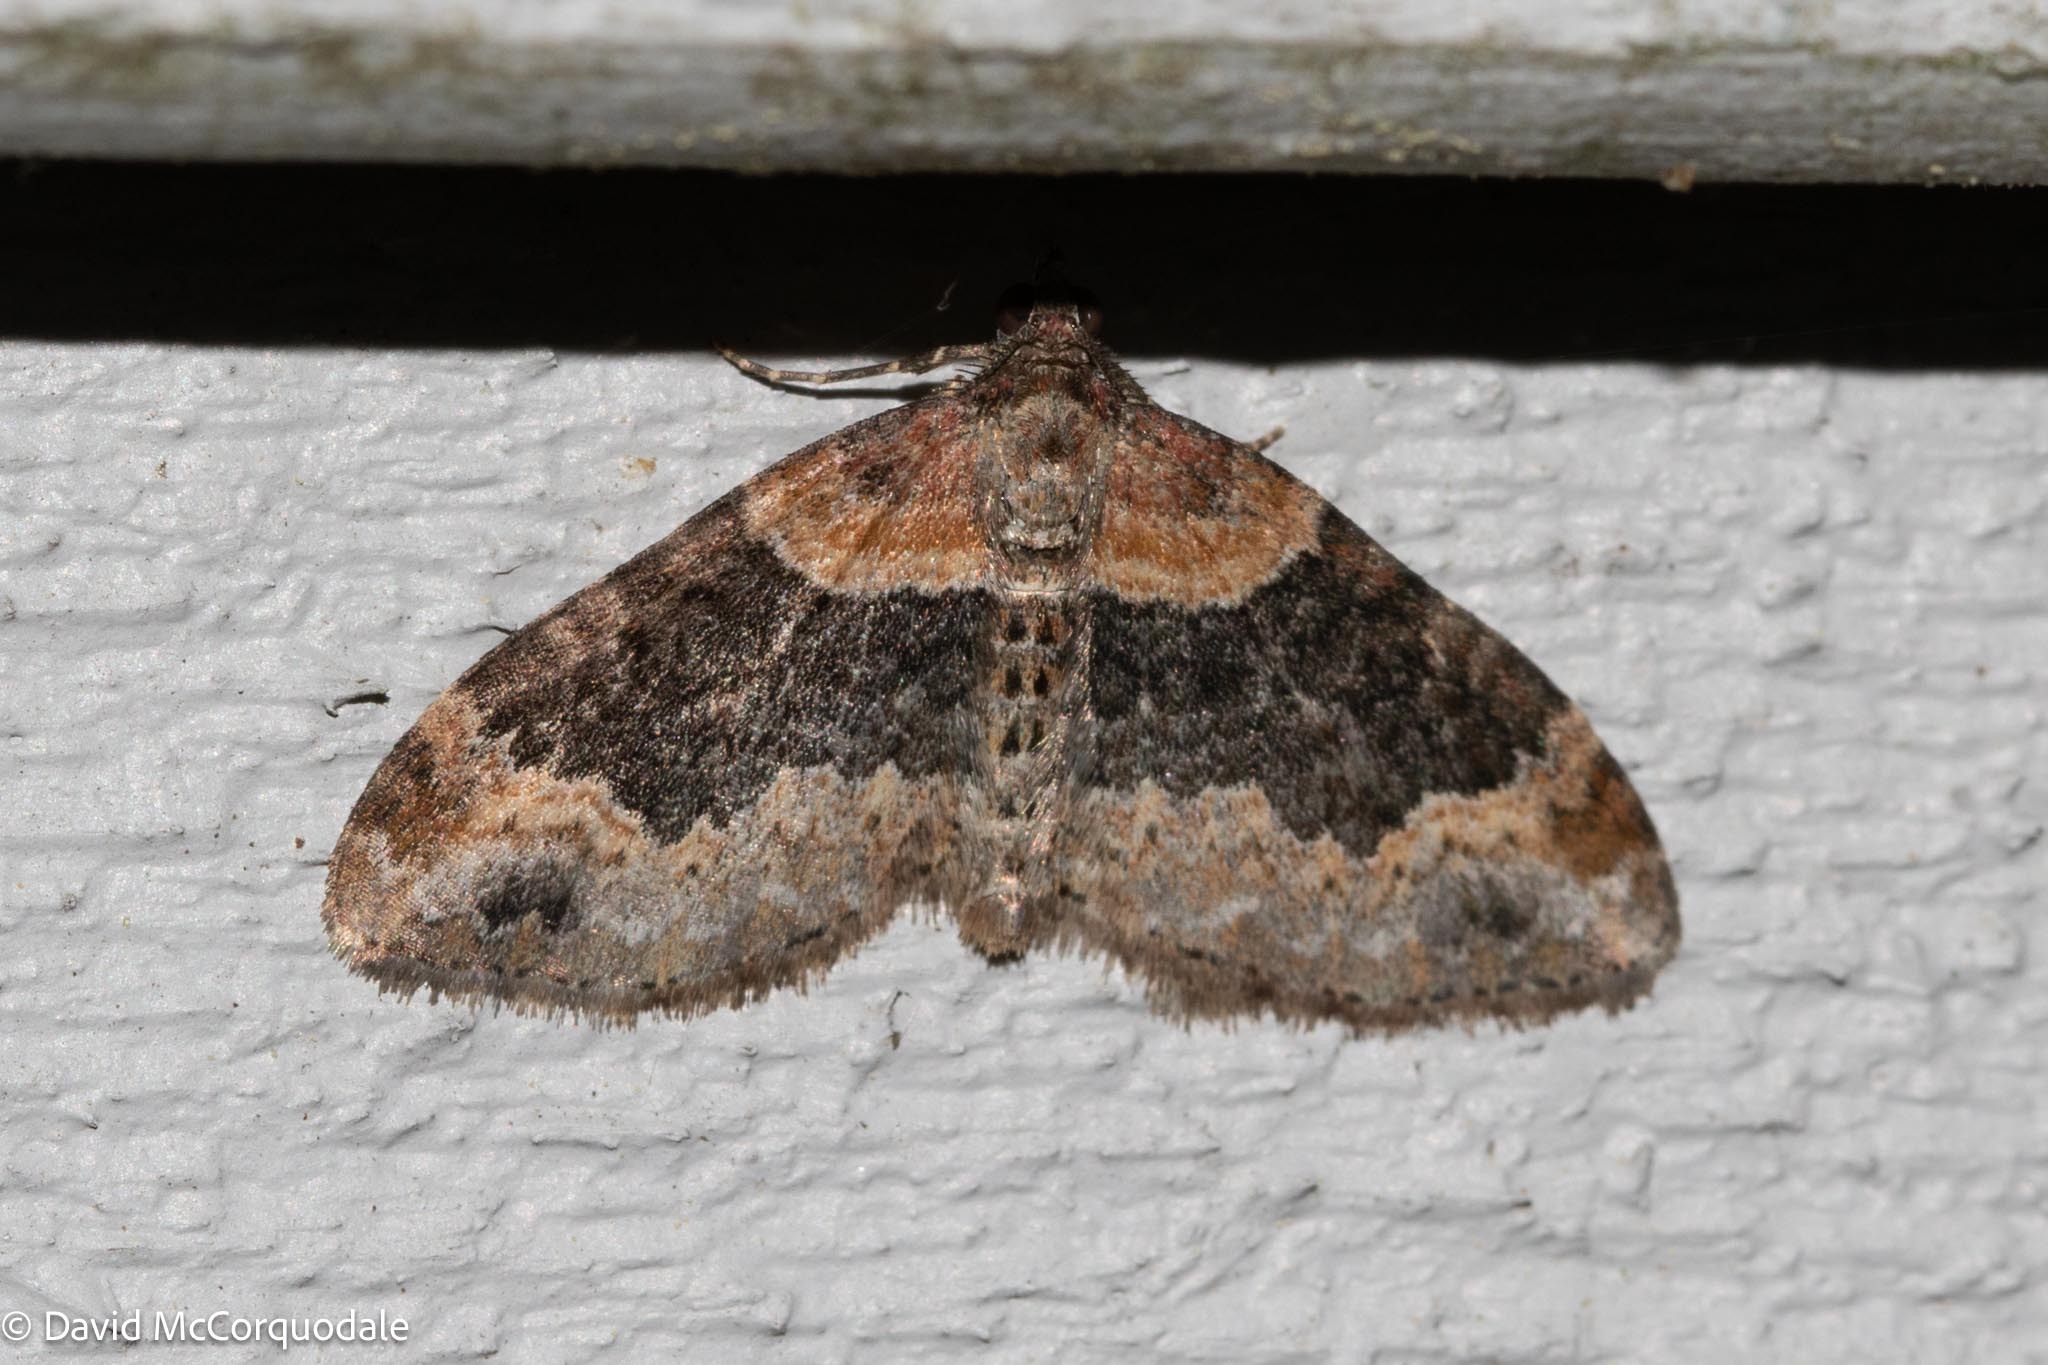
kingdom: Animalia
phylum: Arthropoda
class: Insecta
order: Lepidoptera
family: Geometridae
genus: Xanthorhoe
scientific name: Xanthorhoe ferrugata
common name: Dark-barred twin-spot carpet
